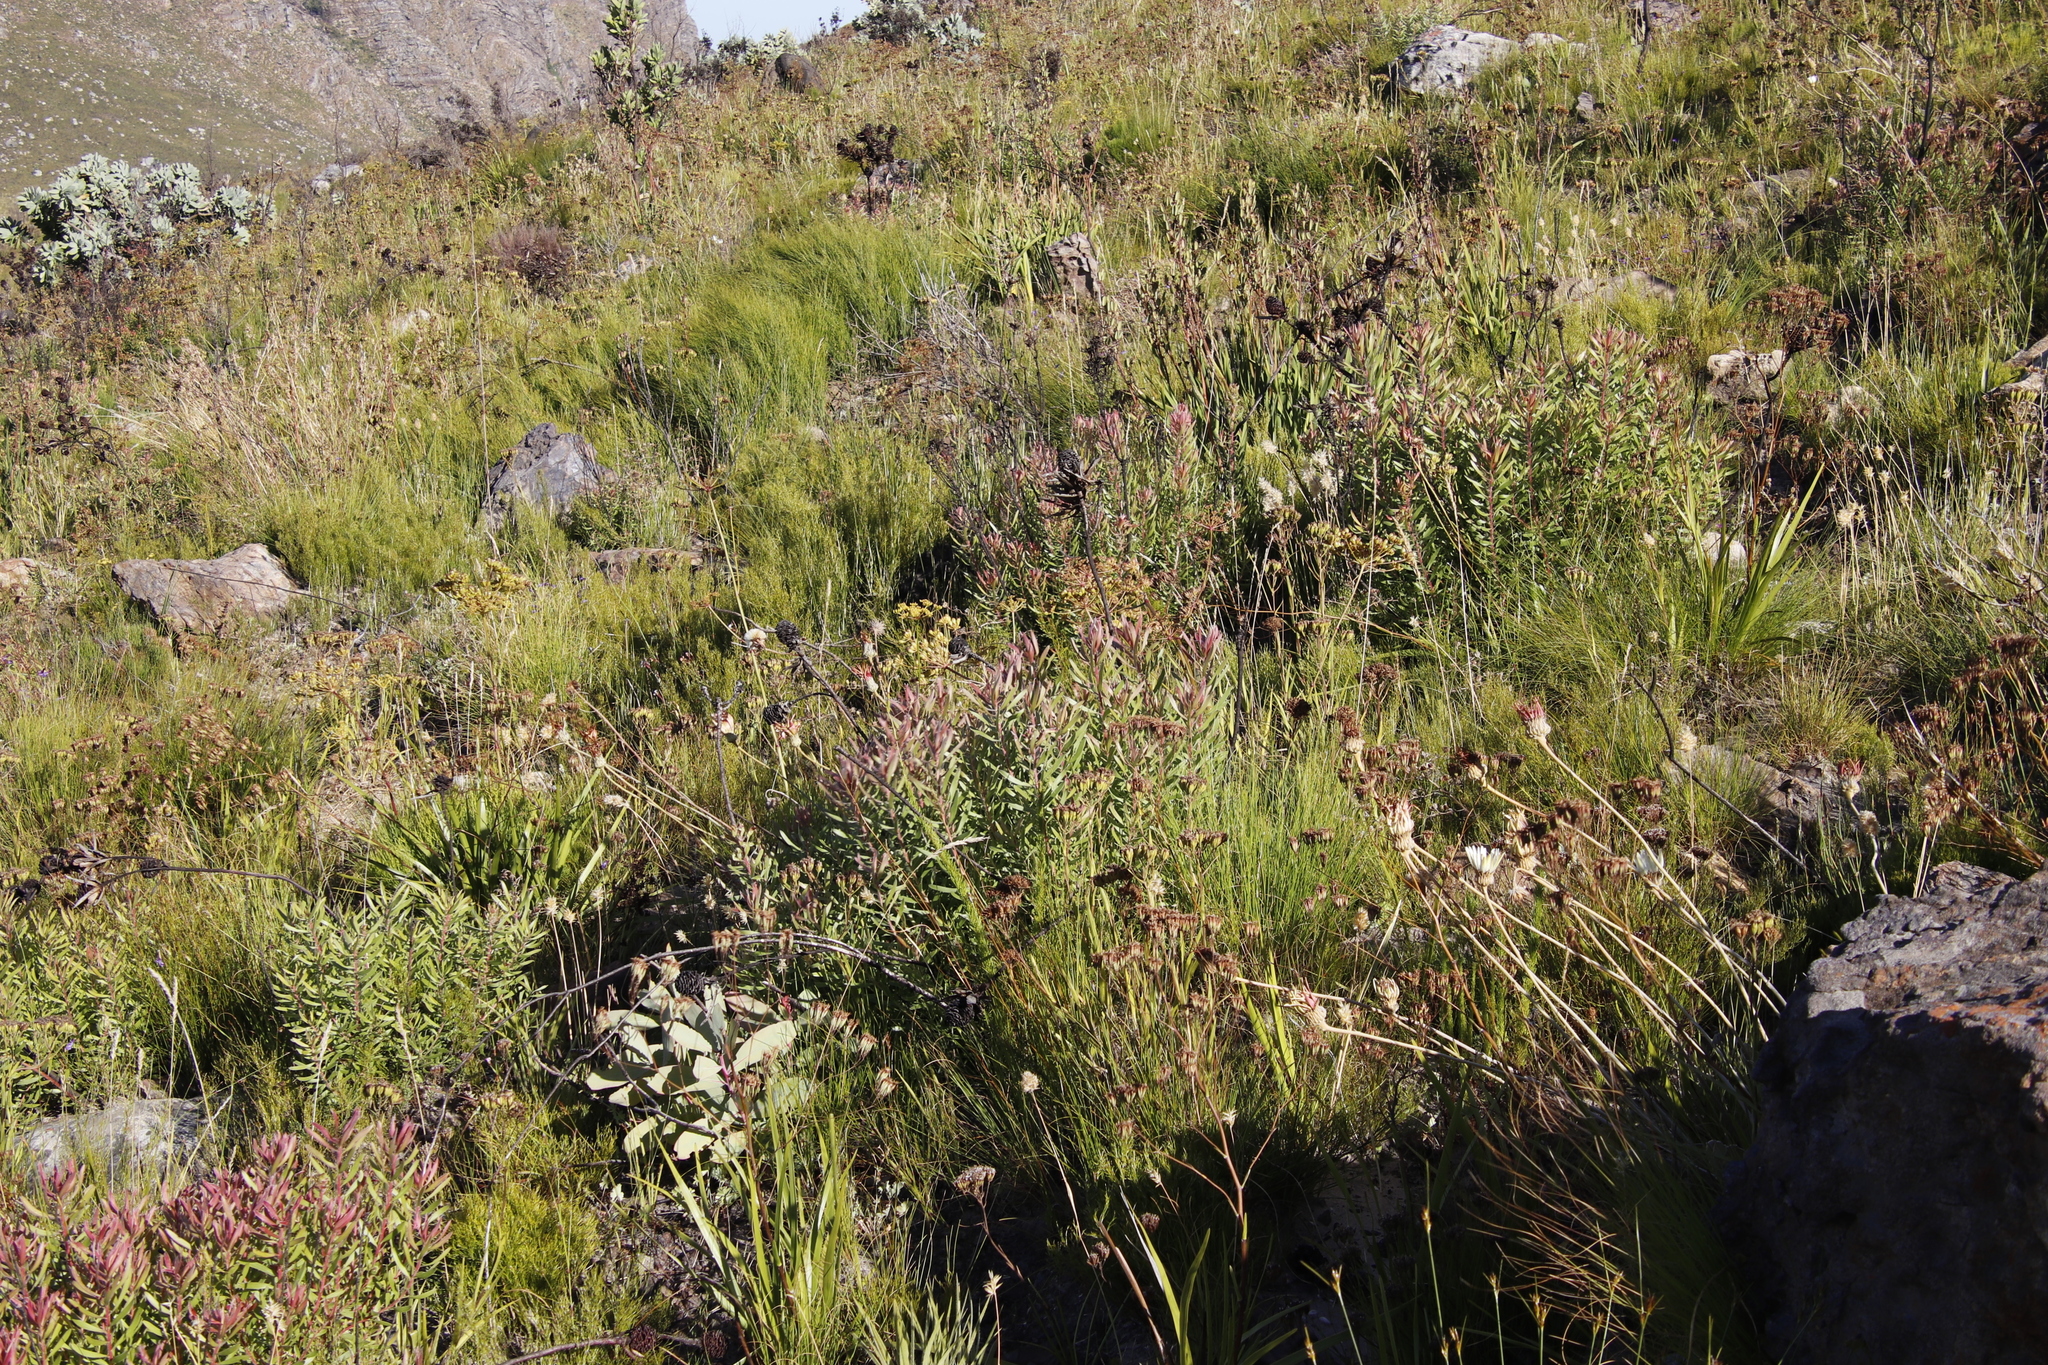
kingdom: Plantae
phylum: Tracheophyta
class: Magnoliopsida
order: Proteales
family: Proteaceae
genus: Leucadendron
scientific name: Leucadendron spissifolium
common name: Spear-leaf conebush
